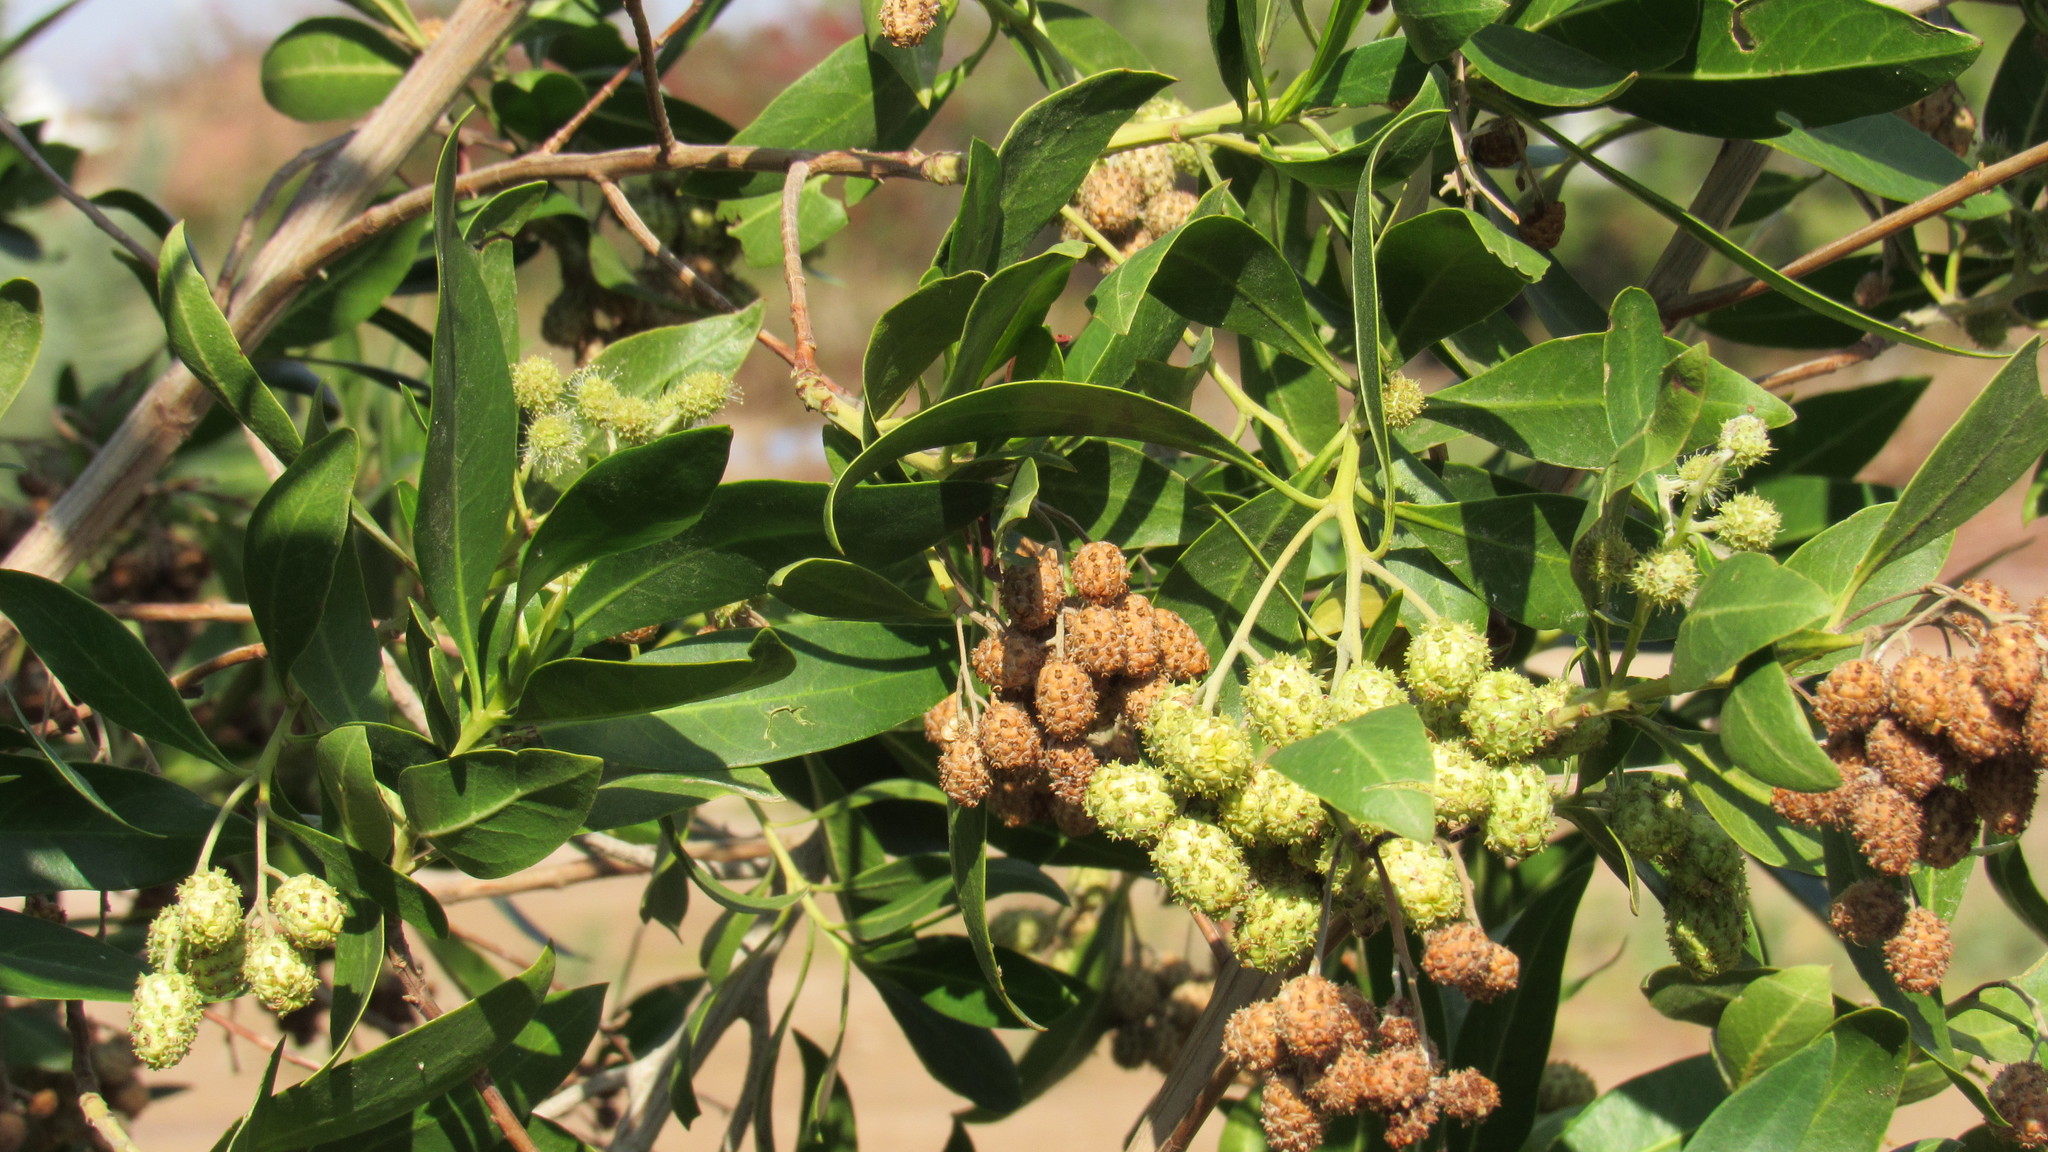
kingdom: Plantae
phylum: Tracheophyta
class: Magnoliopsida
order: Myrtales
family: Combretaceae
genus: Conocarpus
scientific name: Conocarpus erectus
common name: Button mangrove
